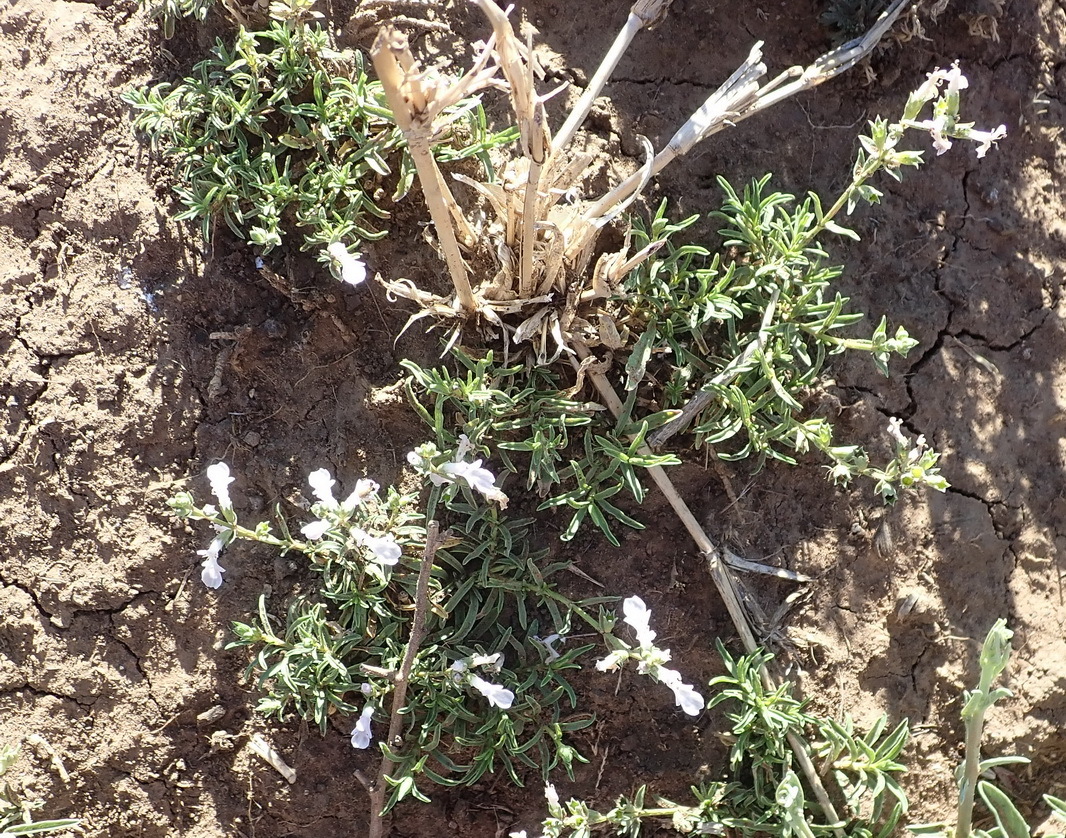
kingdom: Plantae
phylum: Tracheophyta
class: Magnoliopsida
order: Lamiales
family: Lamiaceae
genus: Stachys
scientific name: Stachys hyssopoides
